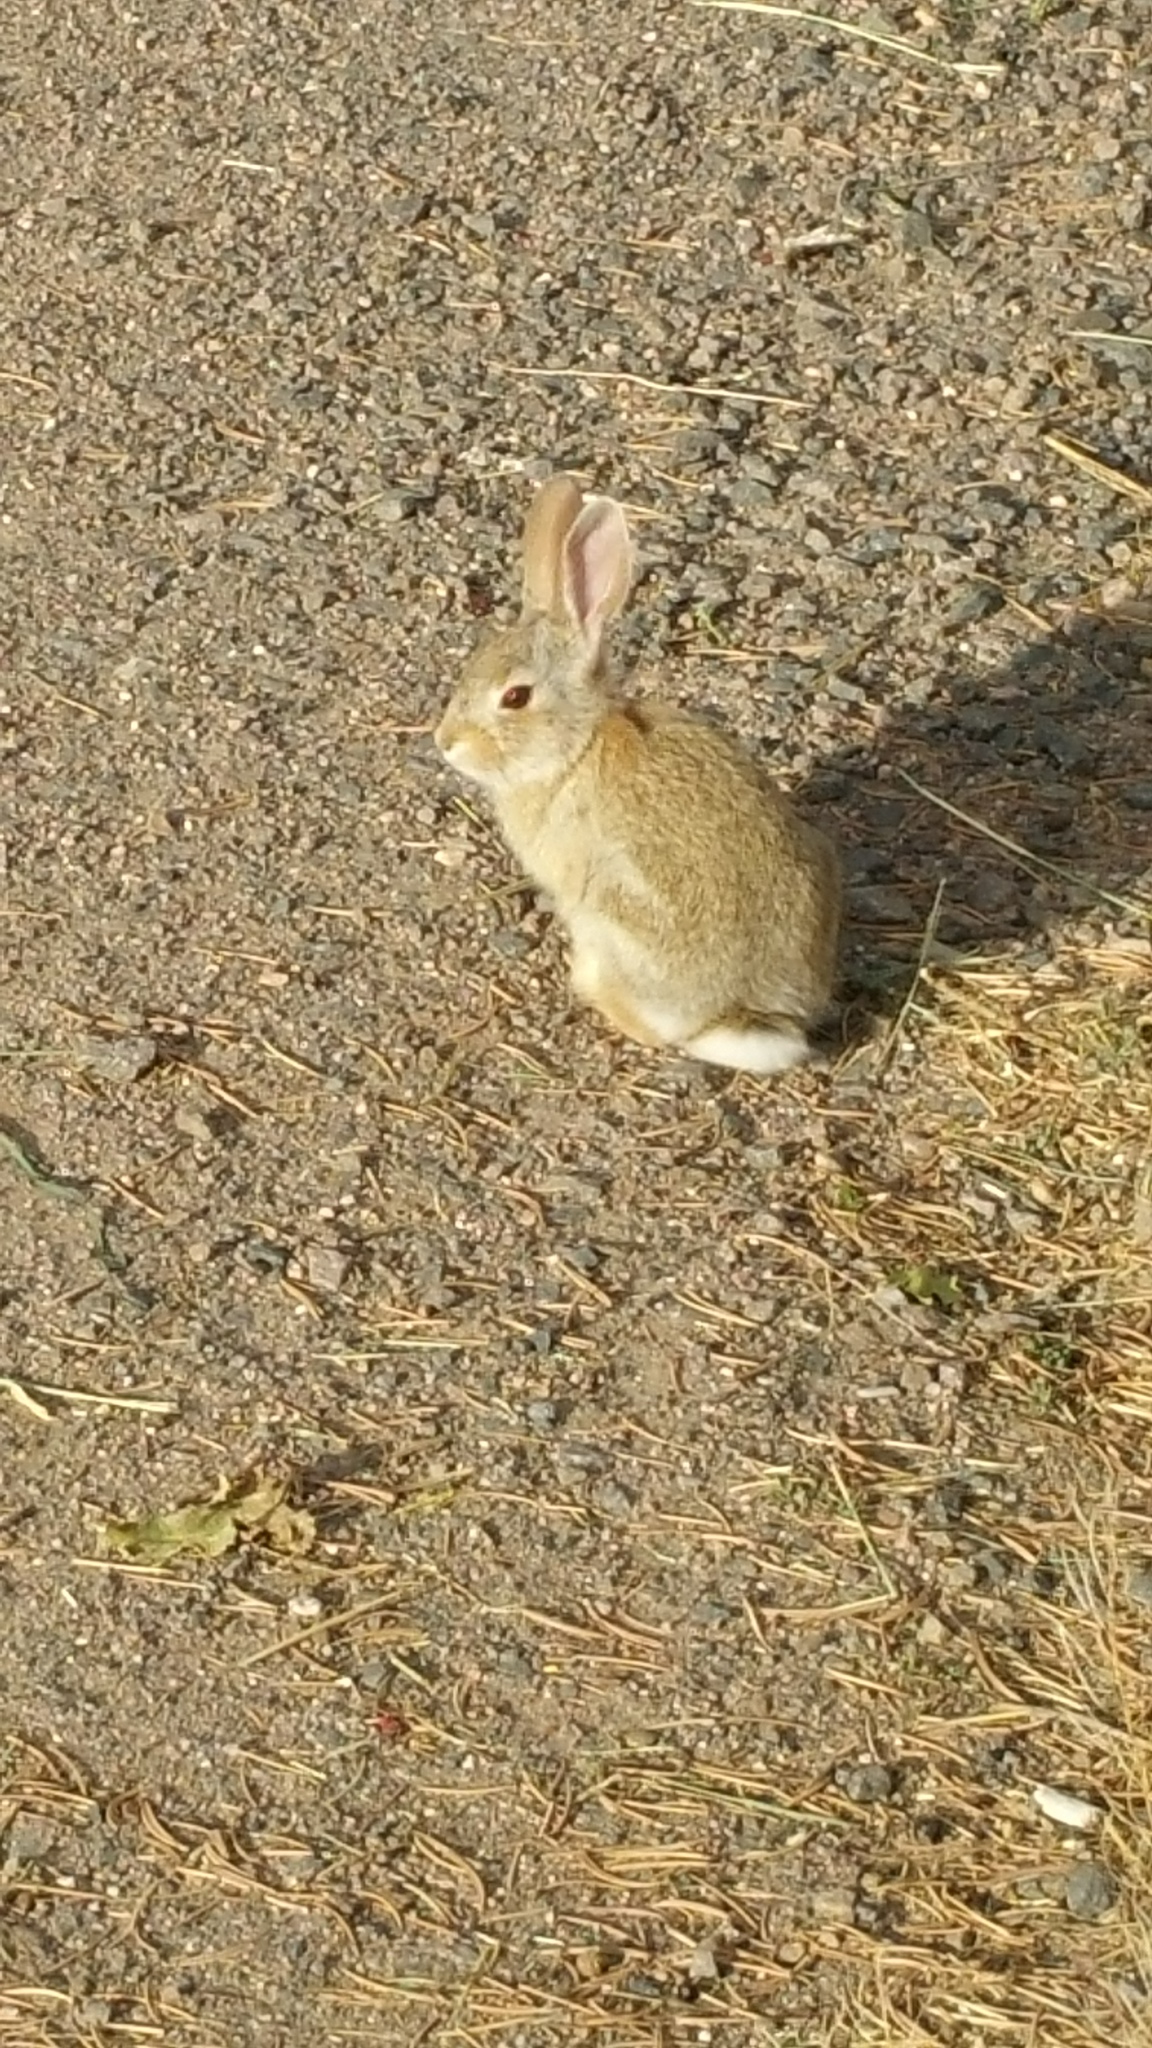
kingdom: Animalia
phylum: Chordata
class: Mammalia
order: Lagomorpha
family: Leporidae
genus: Sylvilagus
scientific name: Sylvilagus audubonii
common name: Desert cottontail
